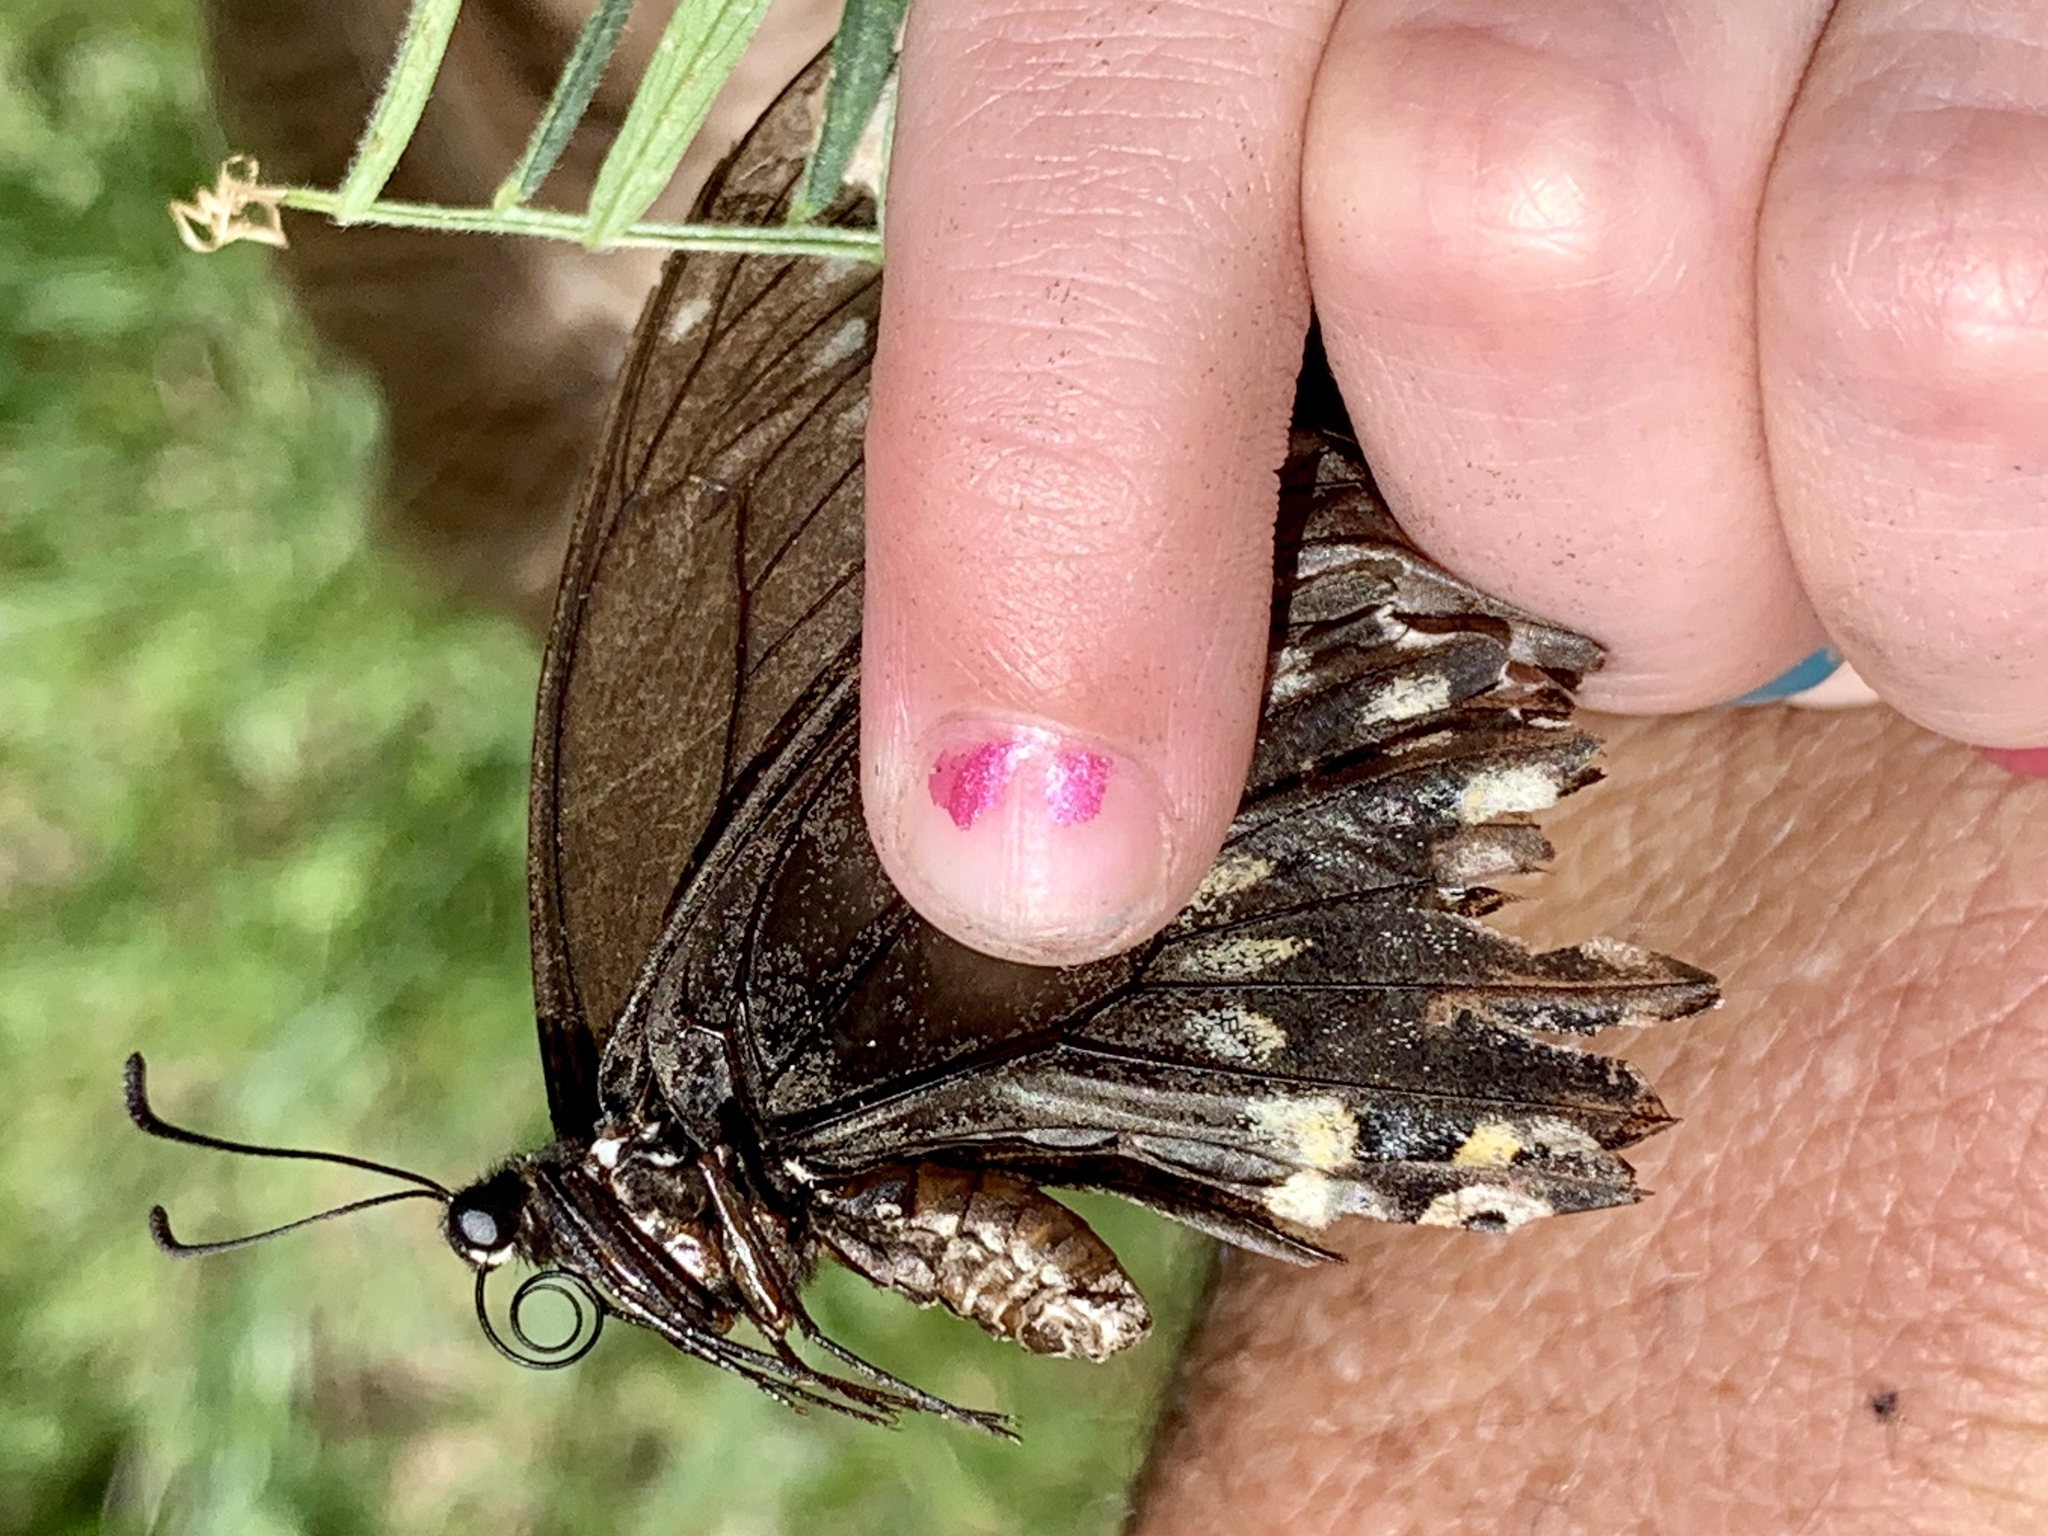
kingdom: Animalia
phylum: Arthropoda
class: Insecta
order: Lepidoptera
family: Papilionidae
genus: Papilio
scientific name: Papilio polyxenes
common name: Black swallowtail
